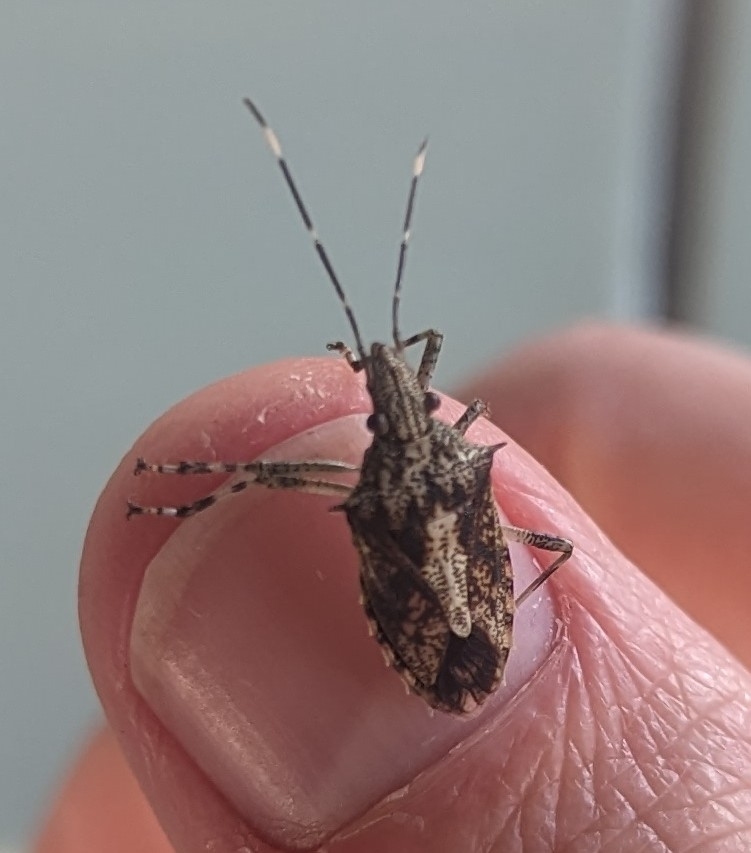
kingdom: Animalia
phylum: Arthropoda
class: Insecta
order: Hemiptera
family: Pentatomidae
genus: Bromocoris
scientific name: Bromocoris
